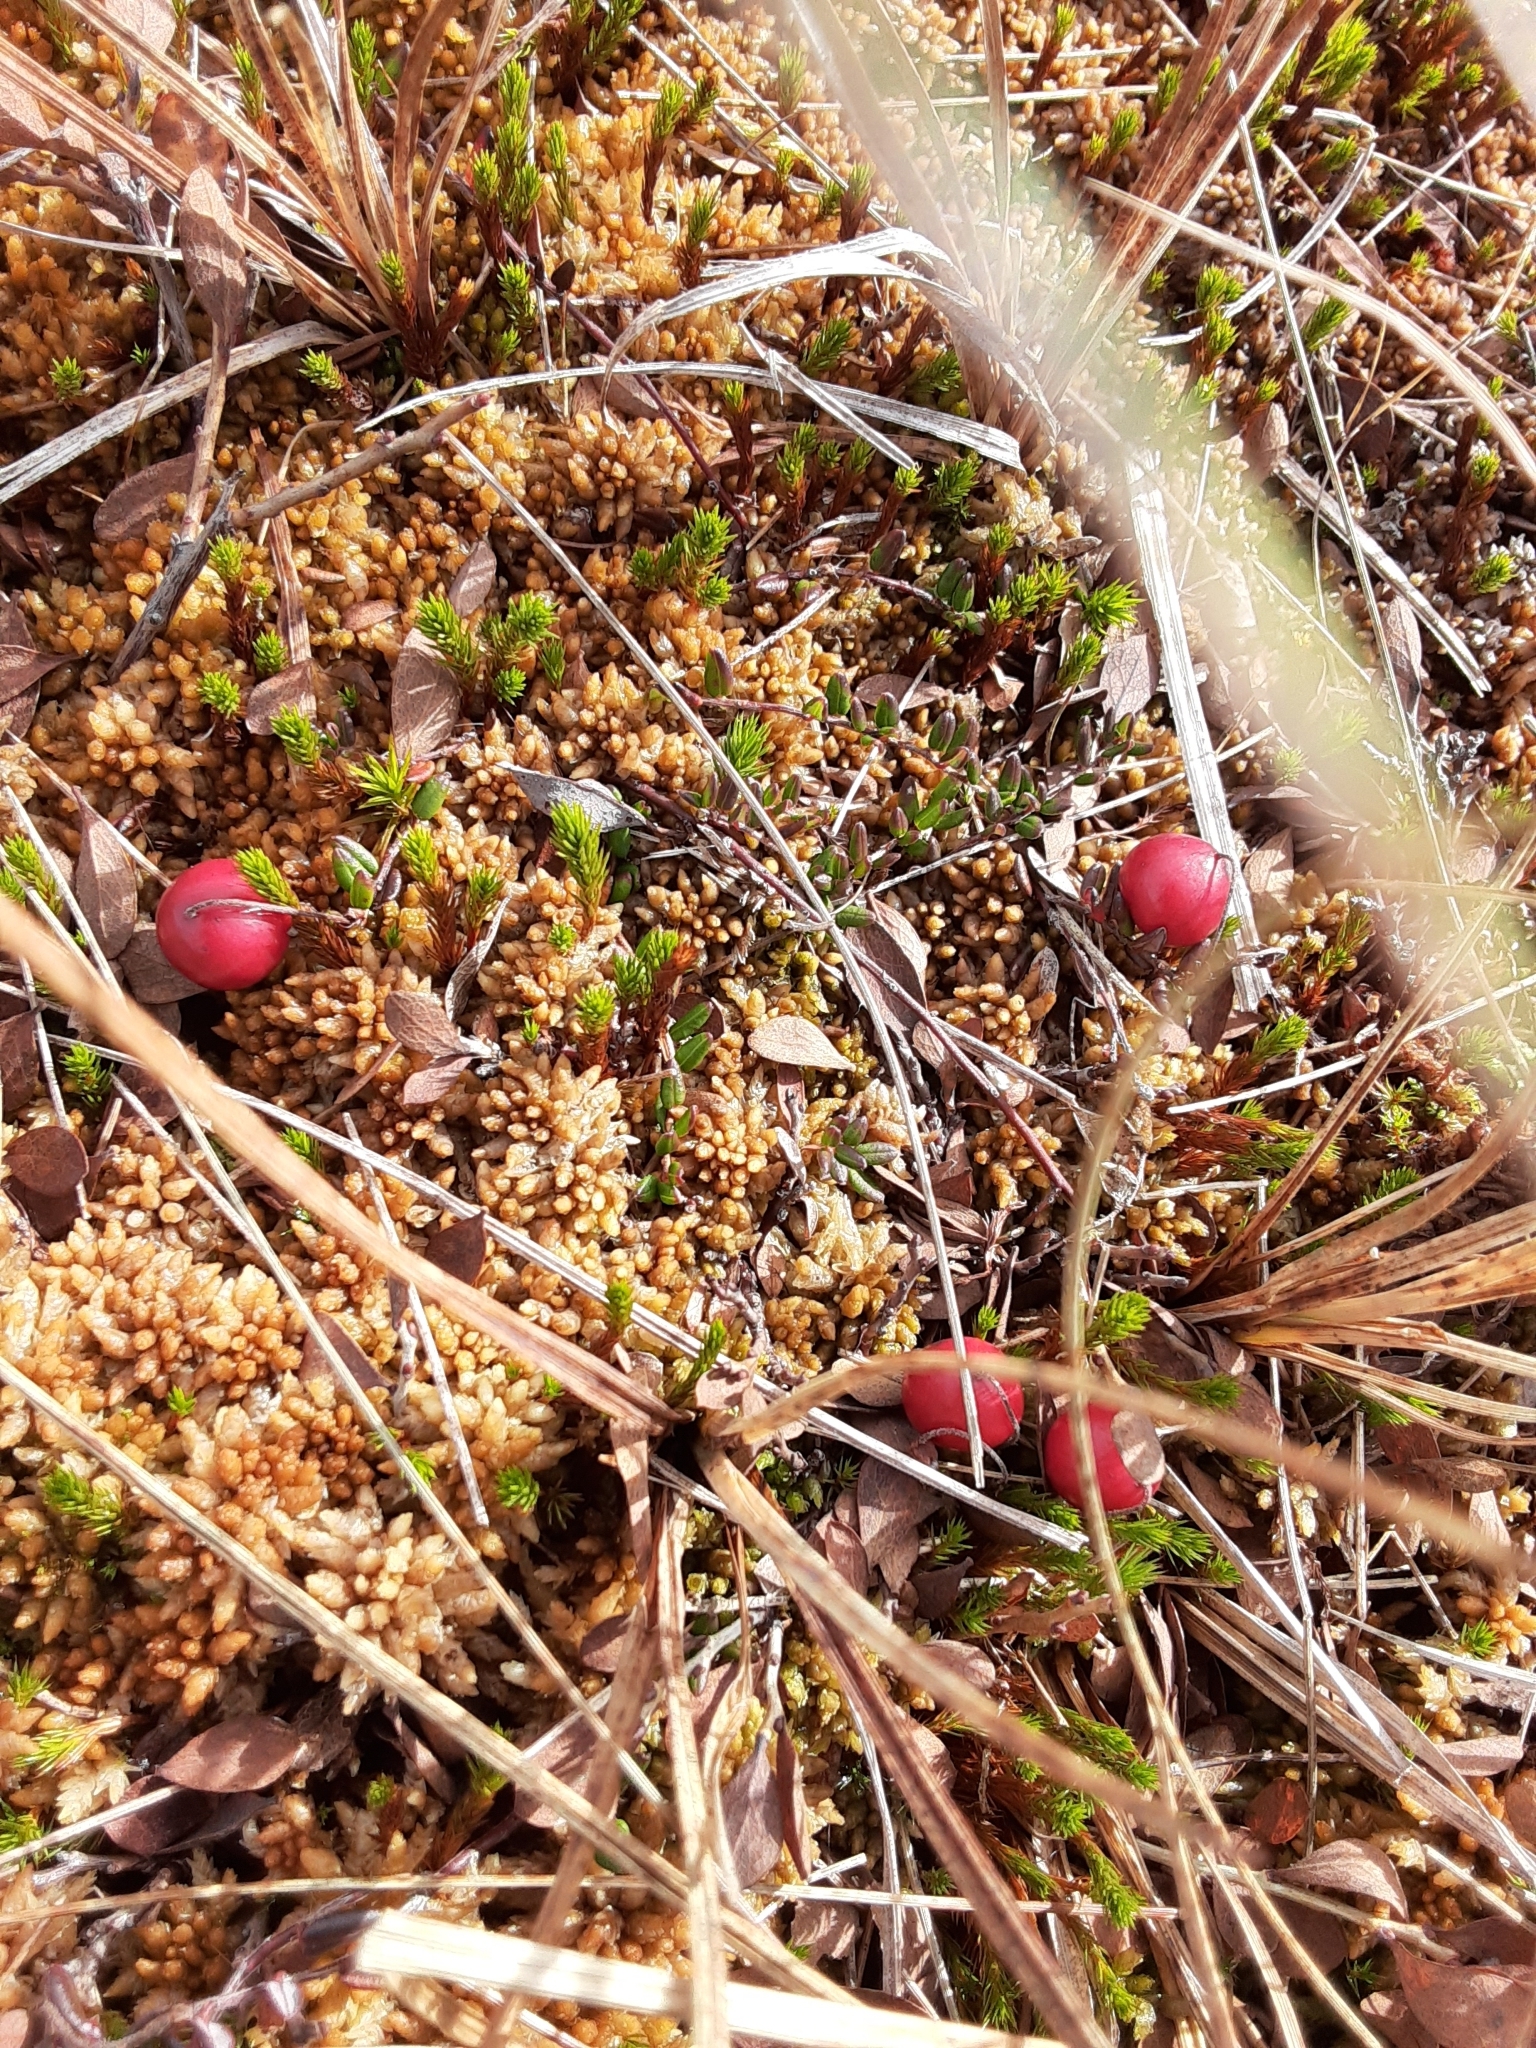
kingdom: Plantae
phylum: Tracheophyta
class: Magnoliopsida
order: Ericales
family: Ericaceae
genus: Vaccinium
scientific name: Vaccinium oxycoccos
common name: Cranberry
